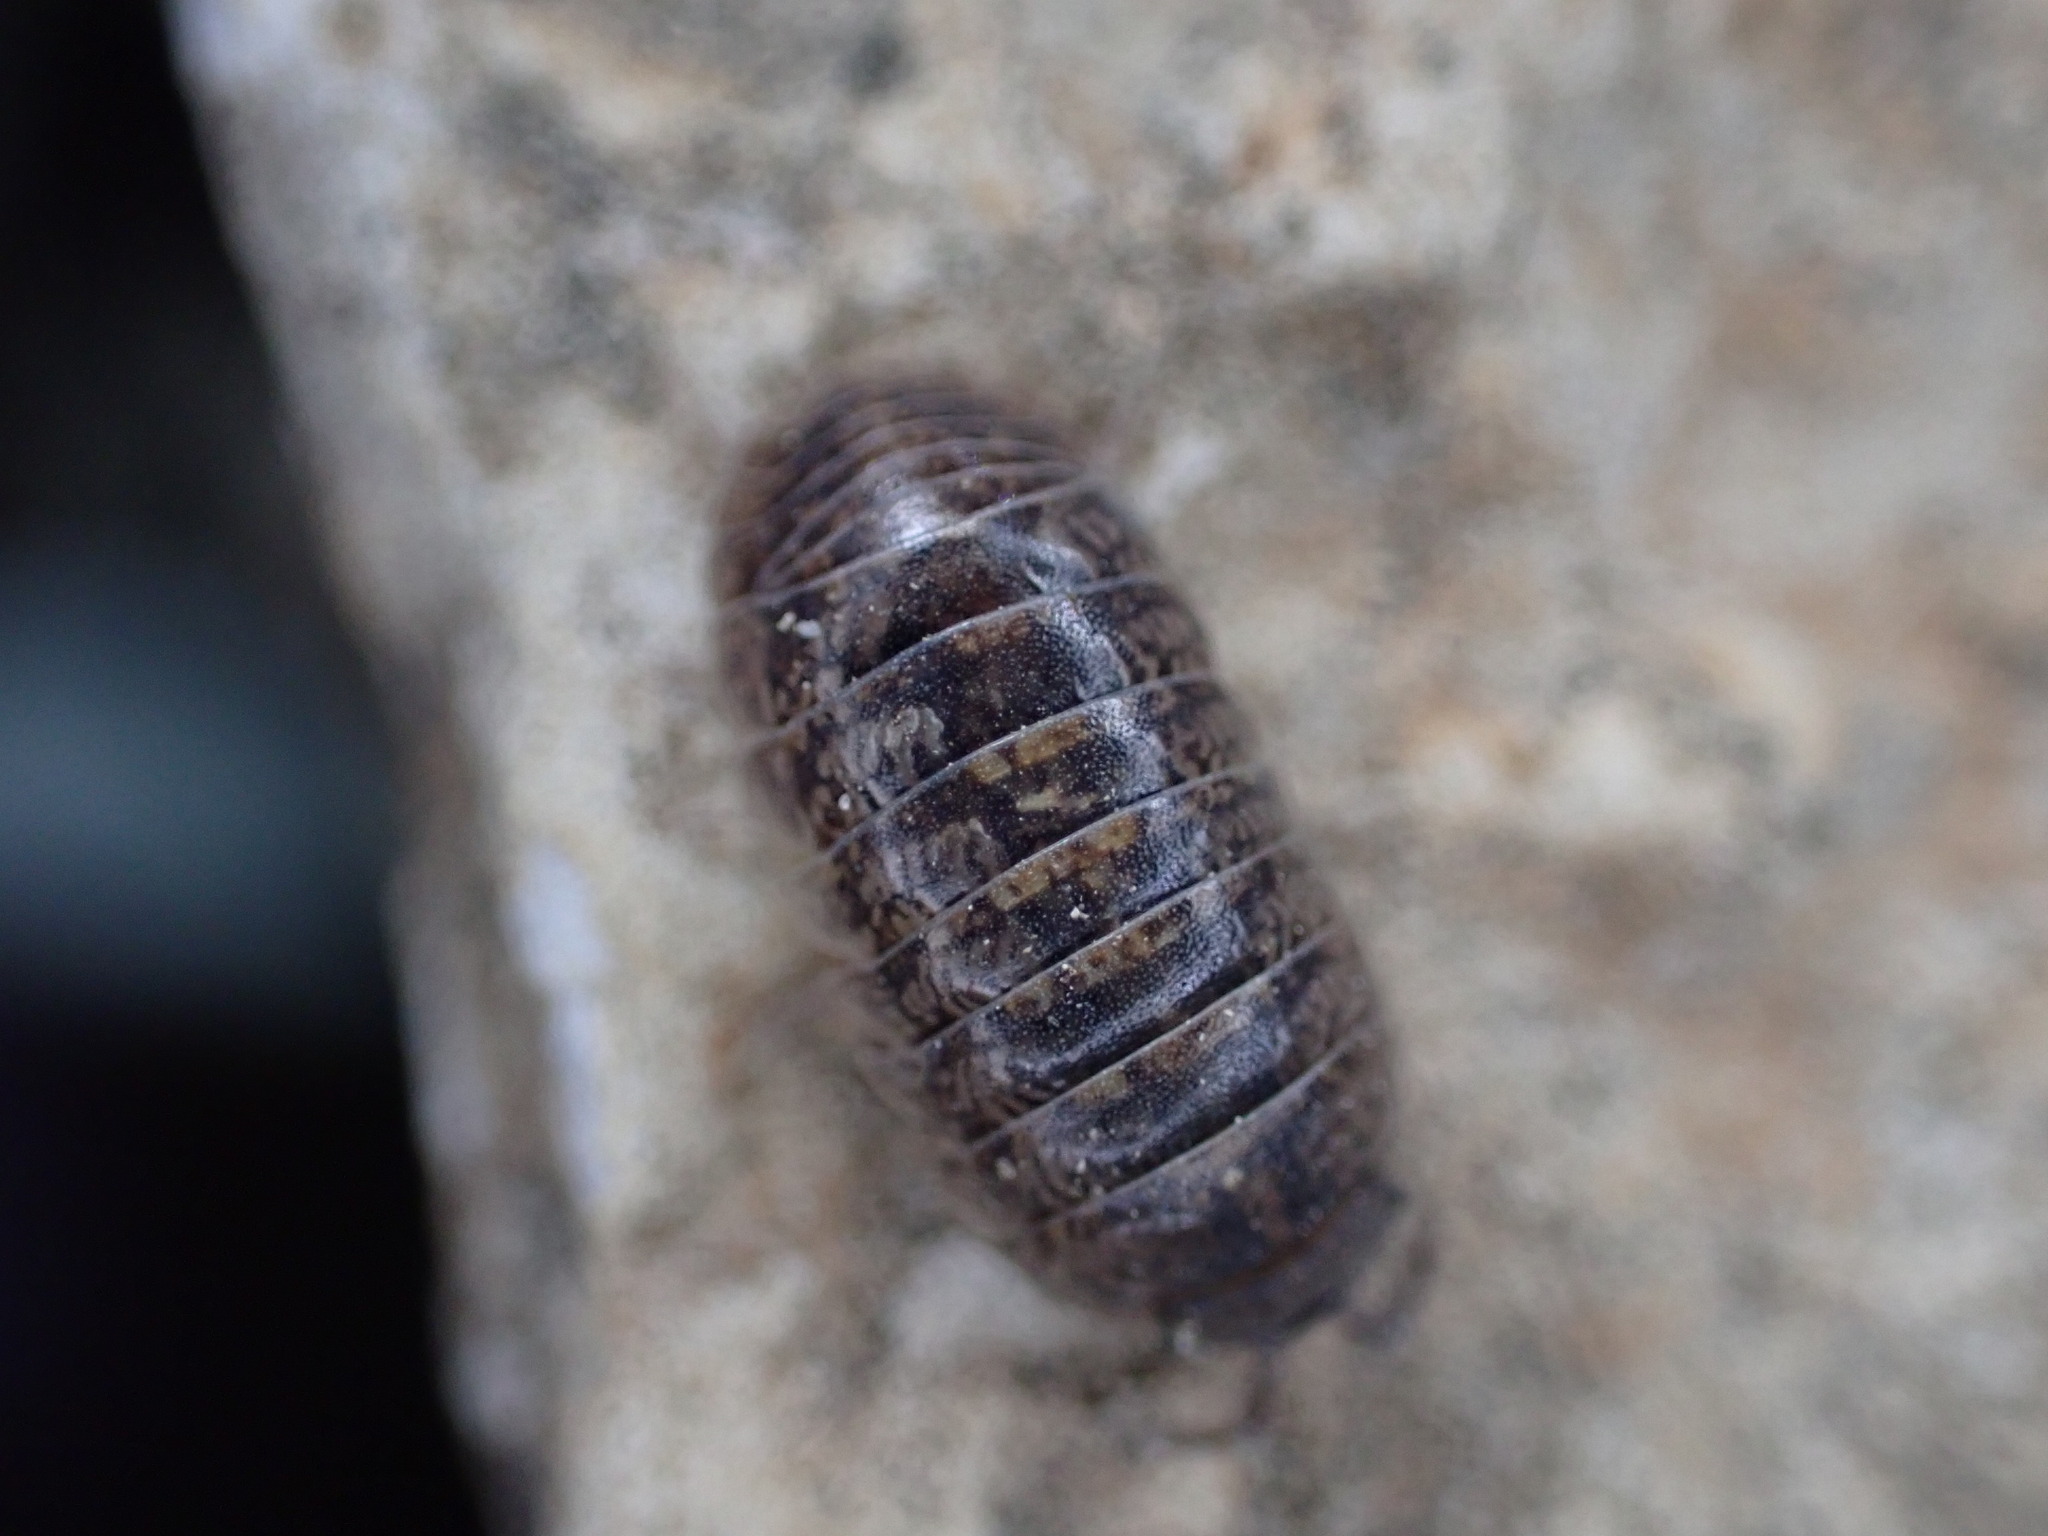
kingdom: Animalia
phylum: Arthropoda
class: Malacostraca
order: Isopoda
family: Armadillidiidae
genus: Armadillidium
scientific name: Armadillidium arcangelii
